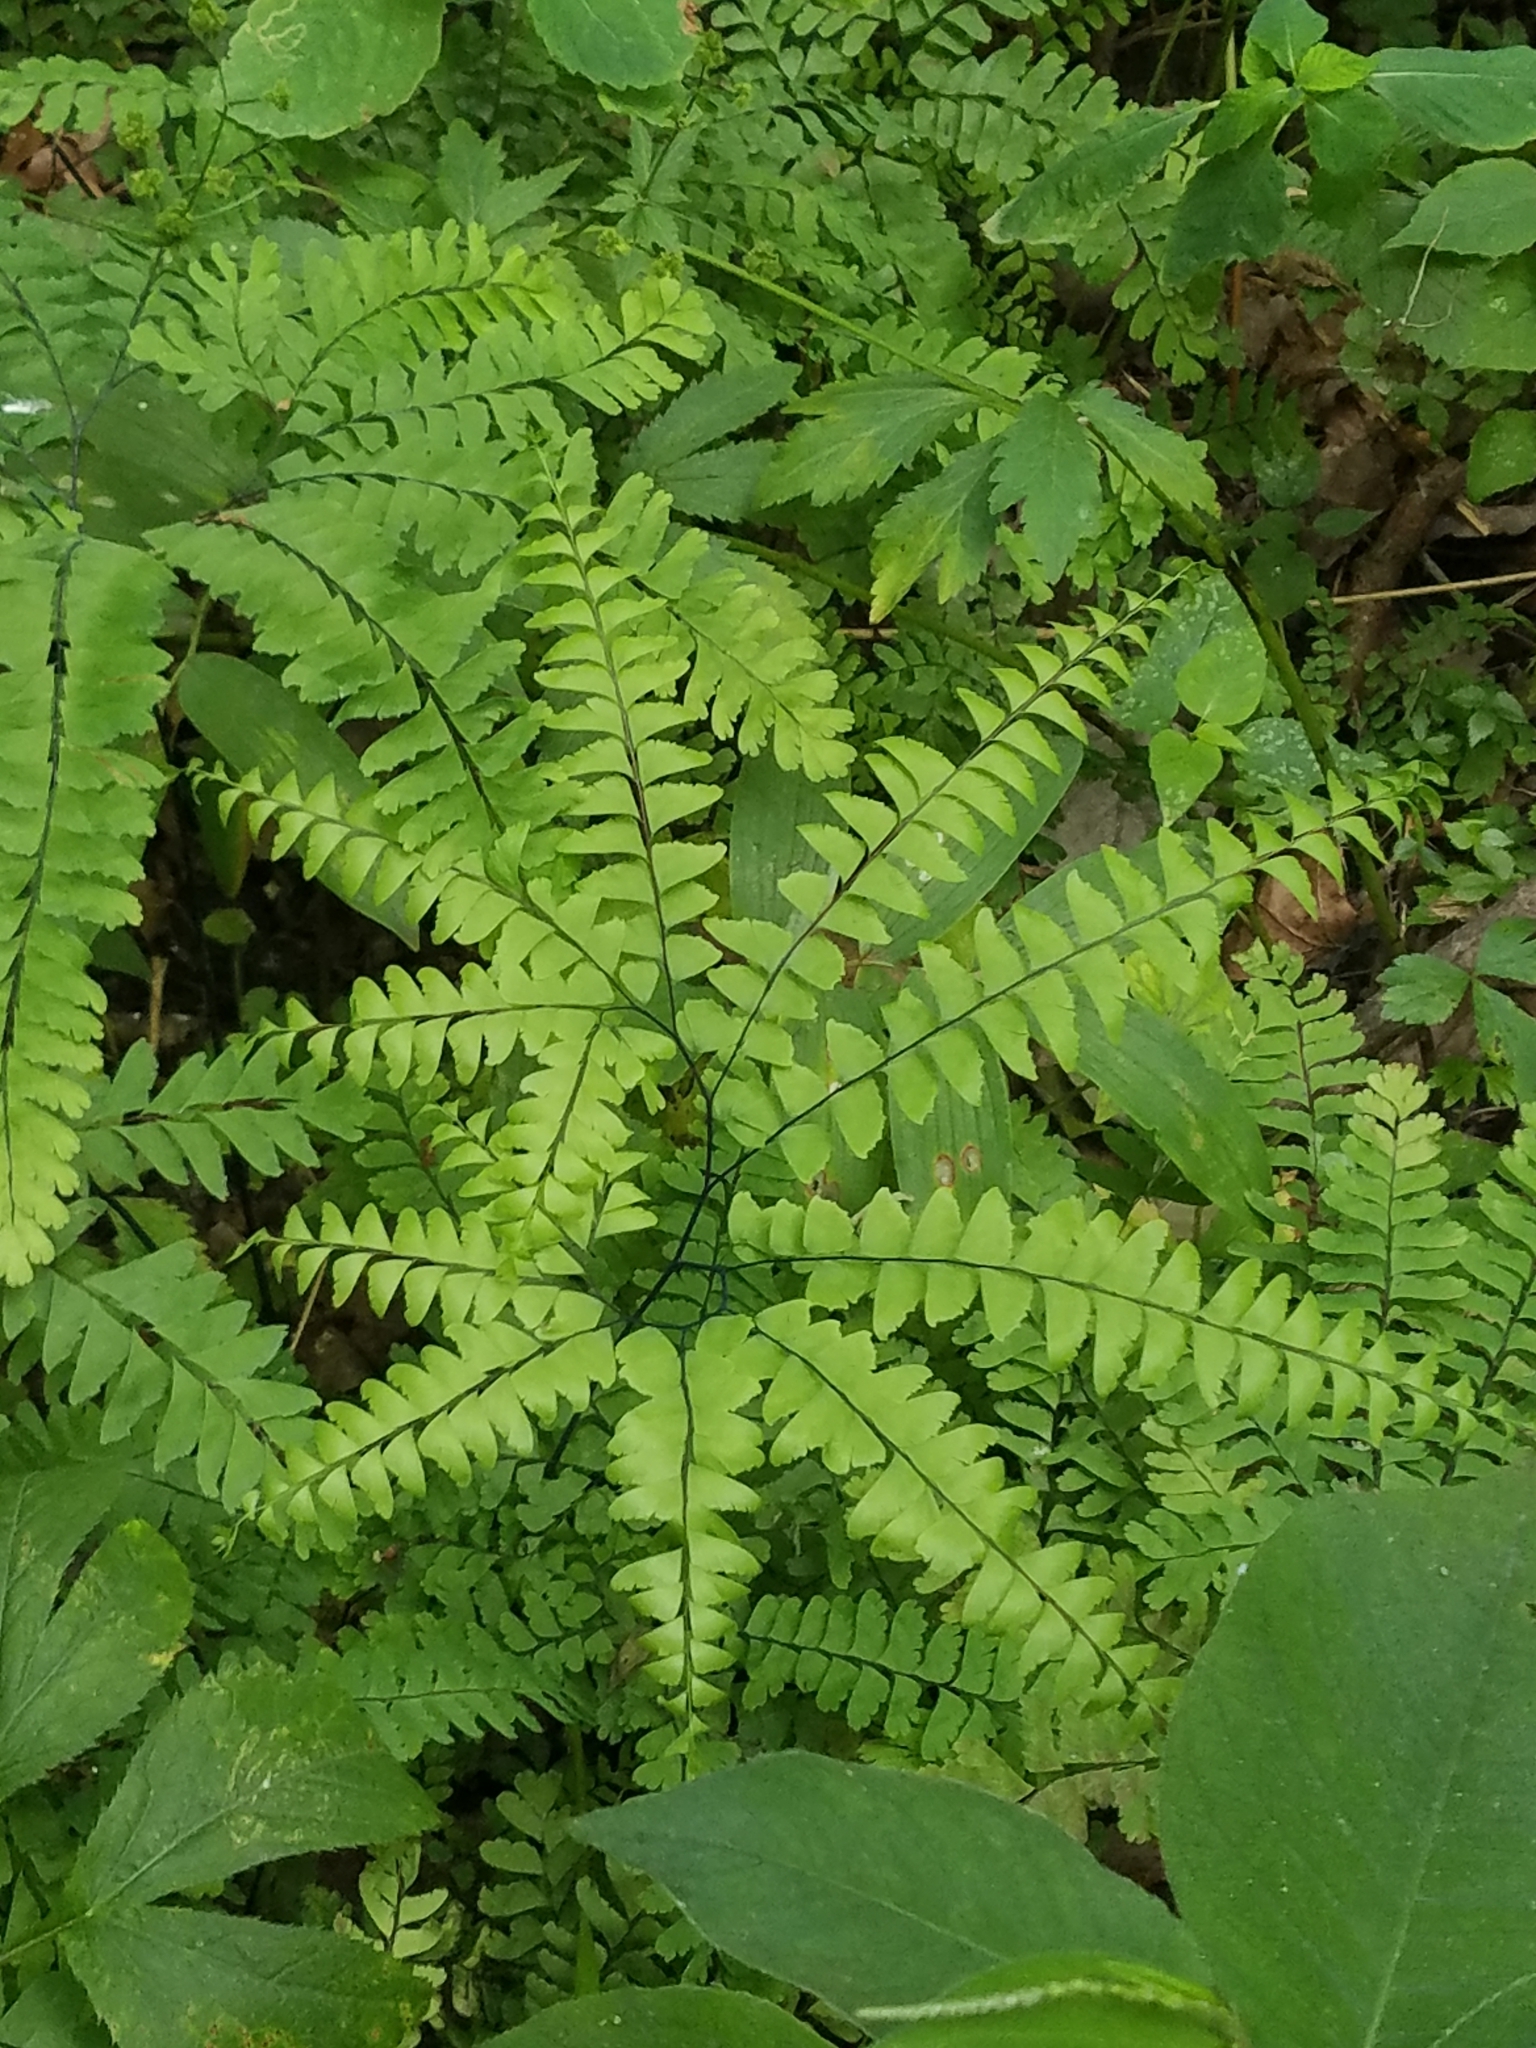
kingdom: Plantae
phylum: Tracheophyta
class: Polypodiopsida
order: Polypodiales
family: Pteridaceae
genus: Adiantum
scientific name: Adiantum pedatum
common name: Five-finger fern
